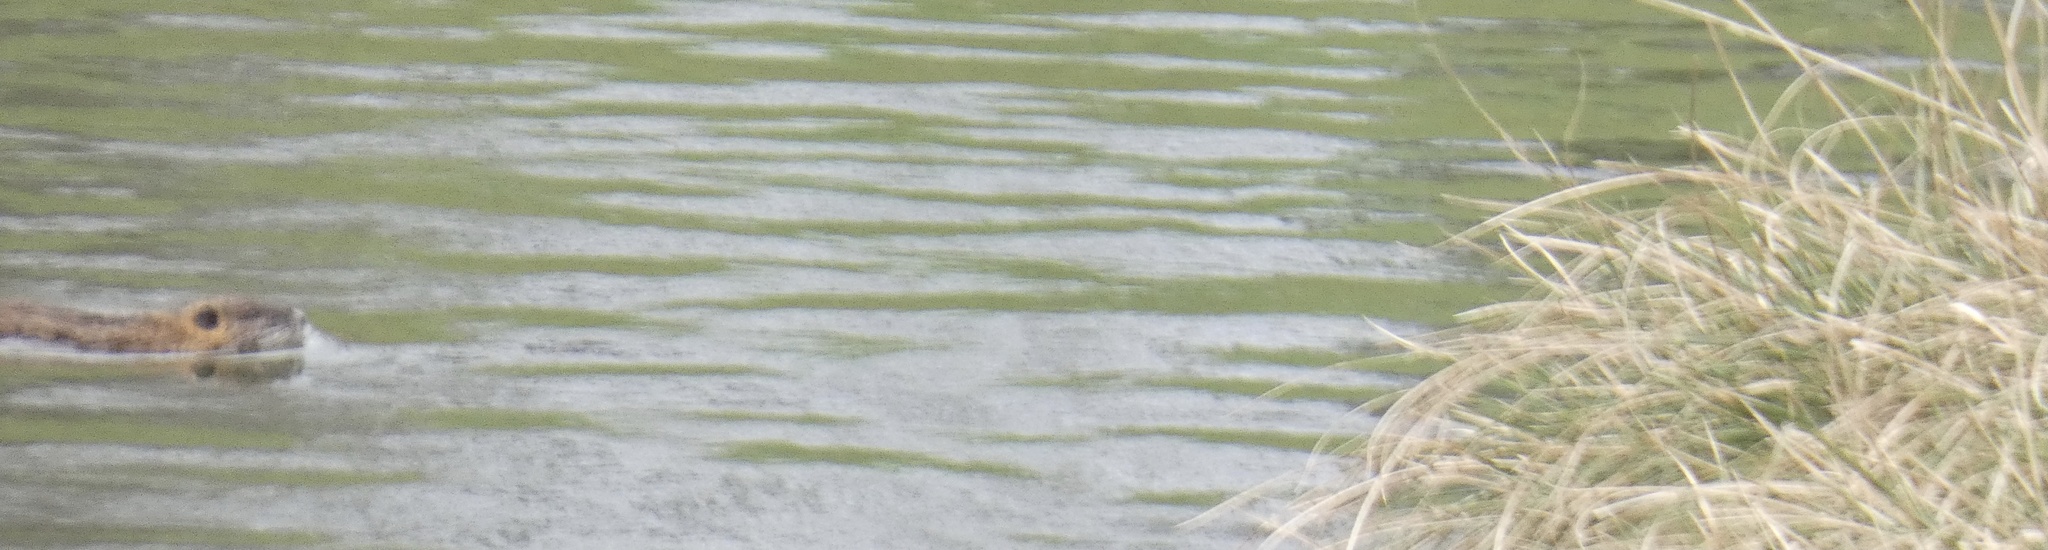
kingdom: Animalia
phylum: Chordata
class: Mammalia
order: Rodentia
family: Myocastoridae
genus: Myocastor
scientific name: Myocastor coypus
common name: Coypu
